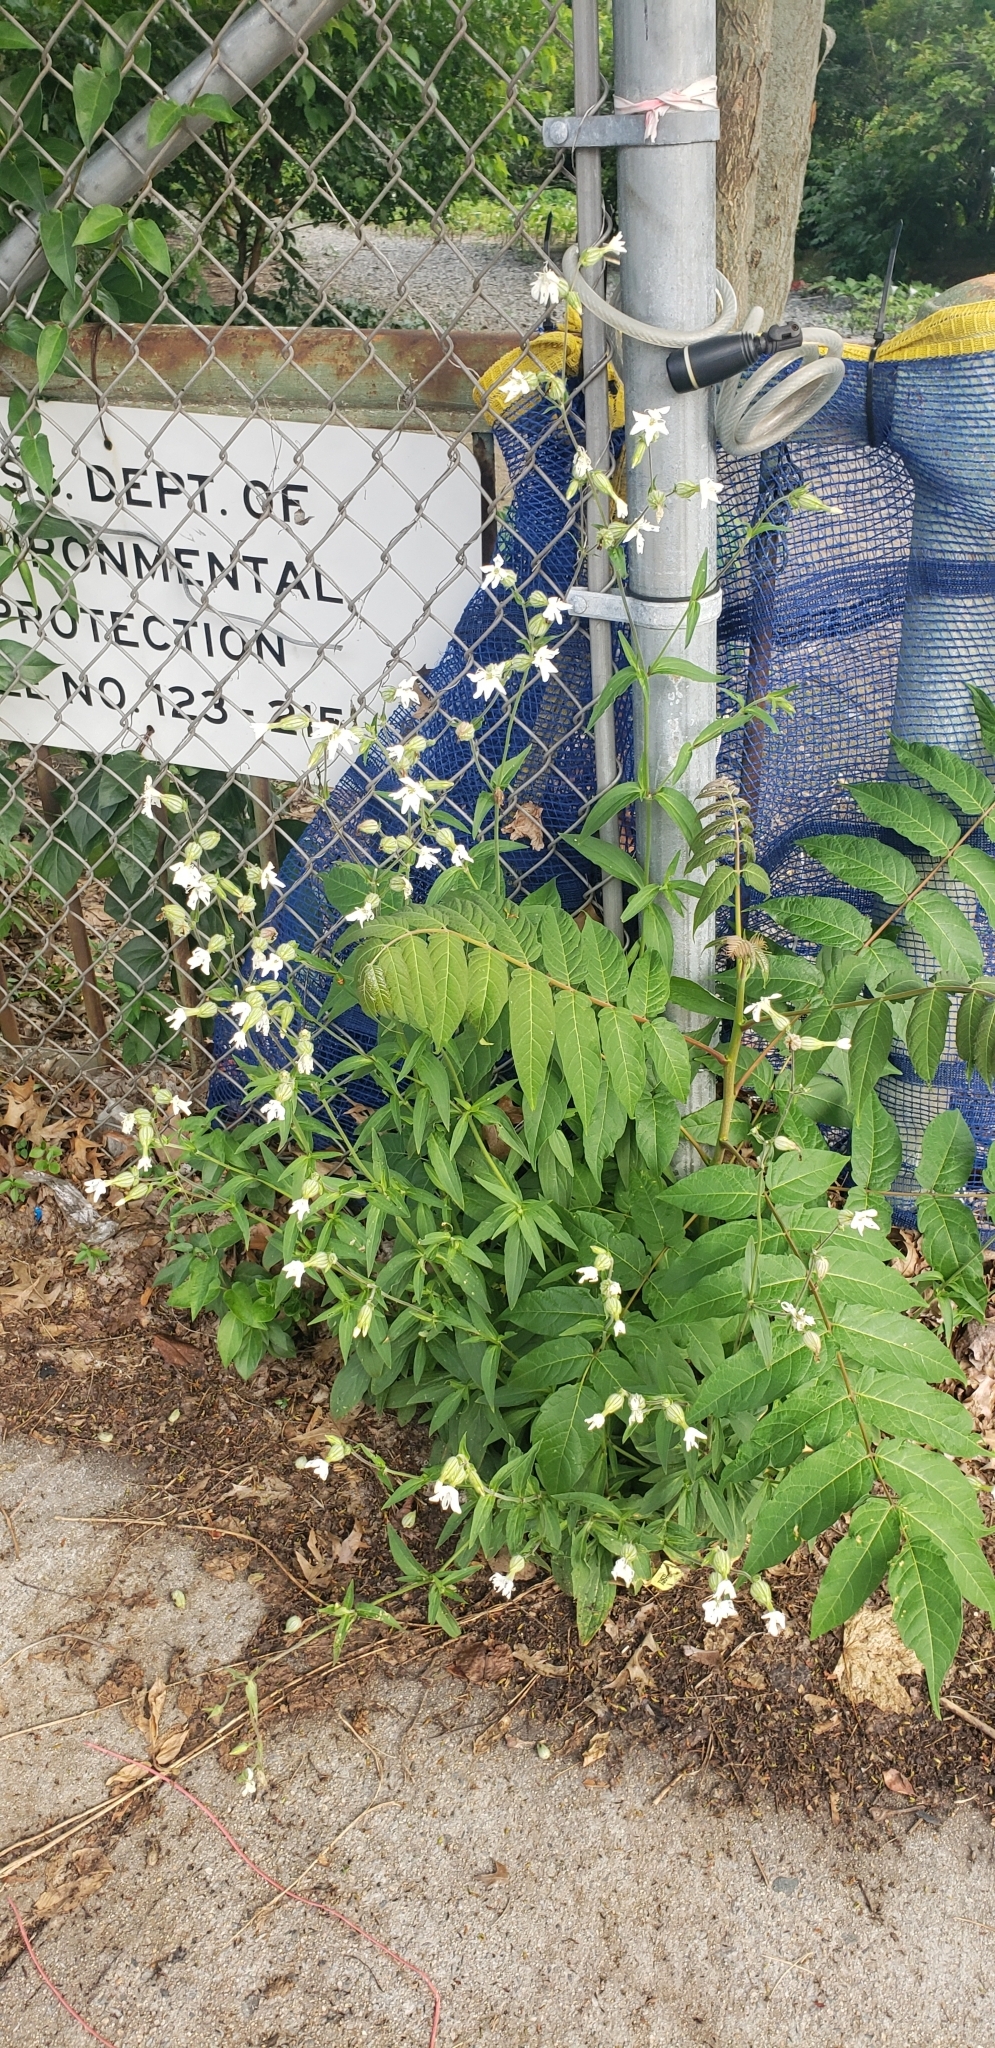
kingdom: Plantae
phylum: Tracheophyta
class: Magnoliopsida
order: Caryophyllales
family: Caryophyllaceae
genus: Silene
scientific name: Silene latifolia
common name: White campion
